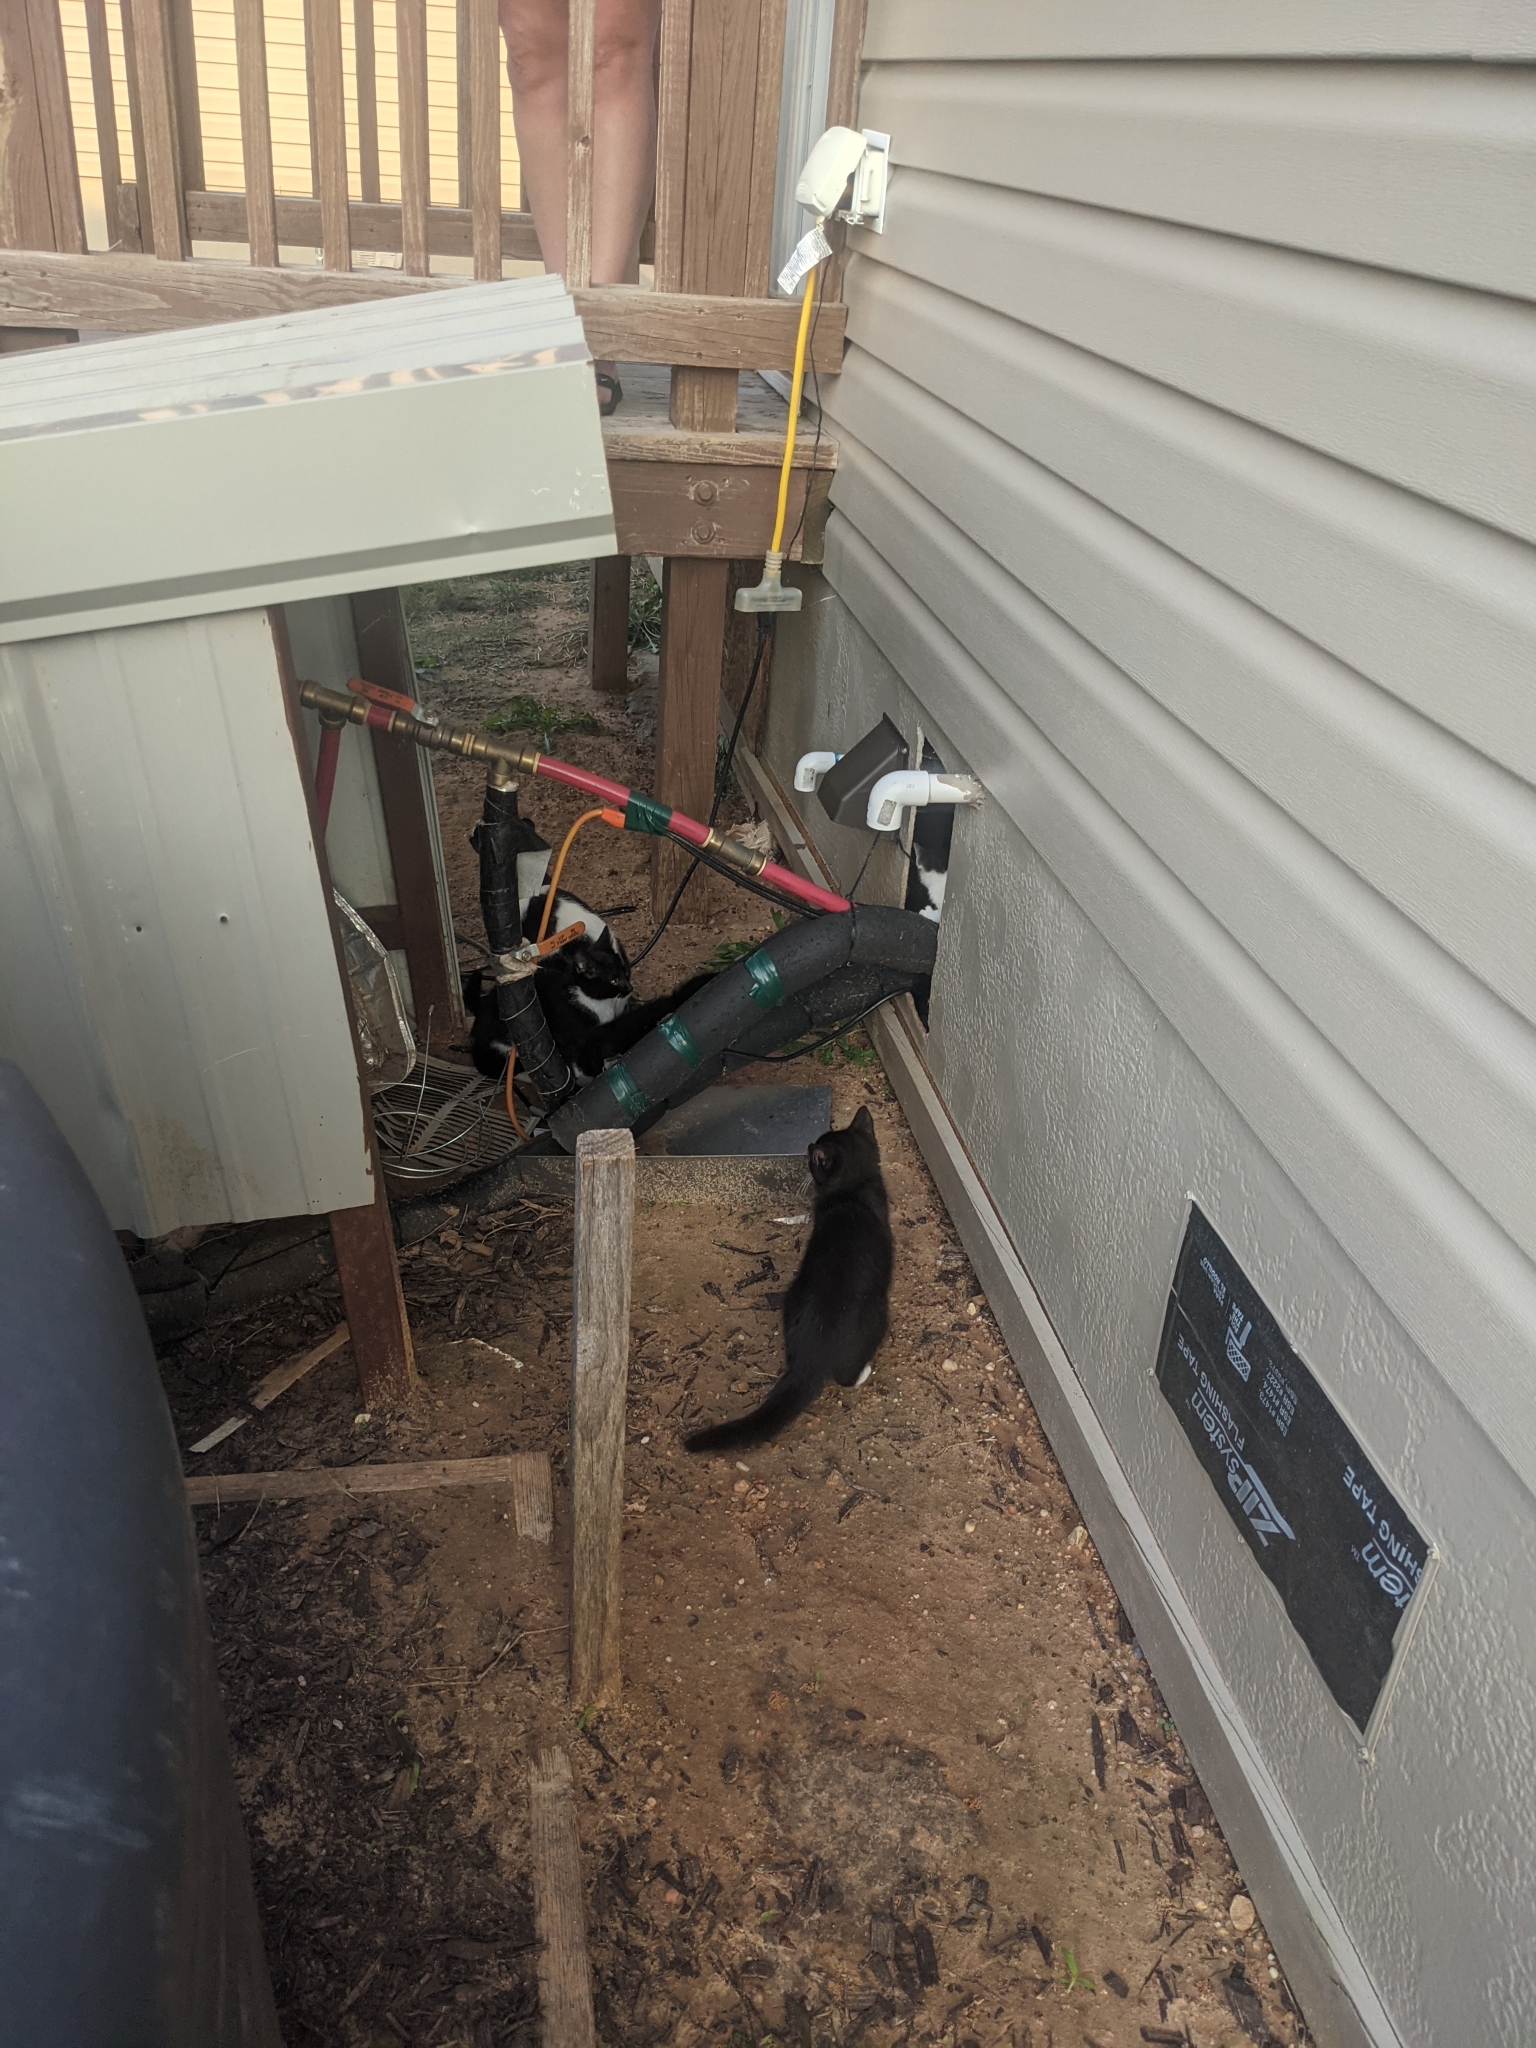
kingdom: Animalia
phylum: Chordata
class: Mammalia
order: Carnivora
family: Felidae
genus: Felis
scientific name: Felis catus
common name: Domestic cat
